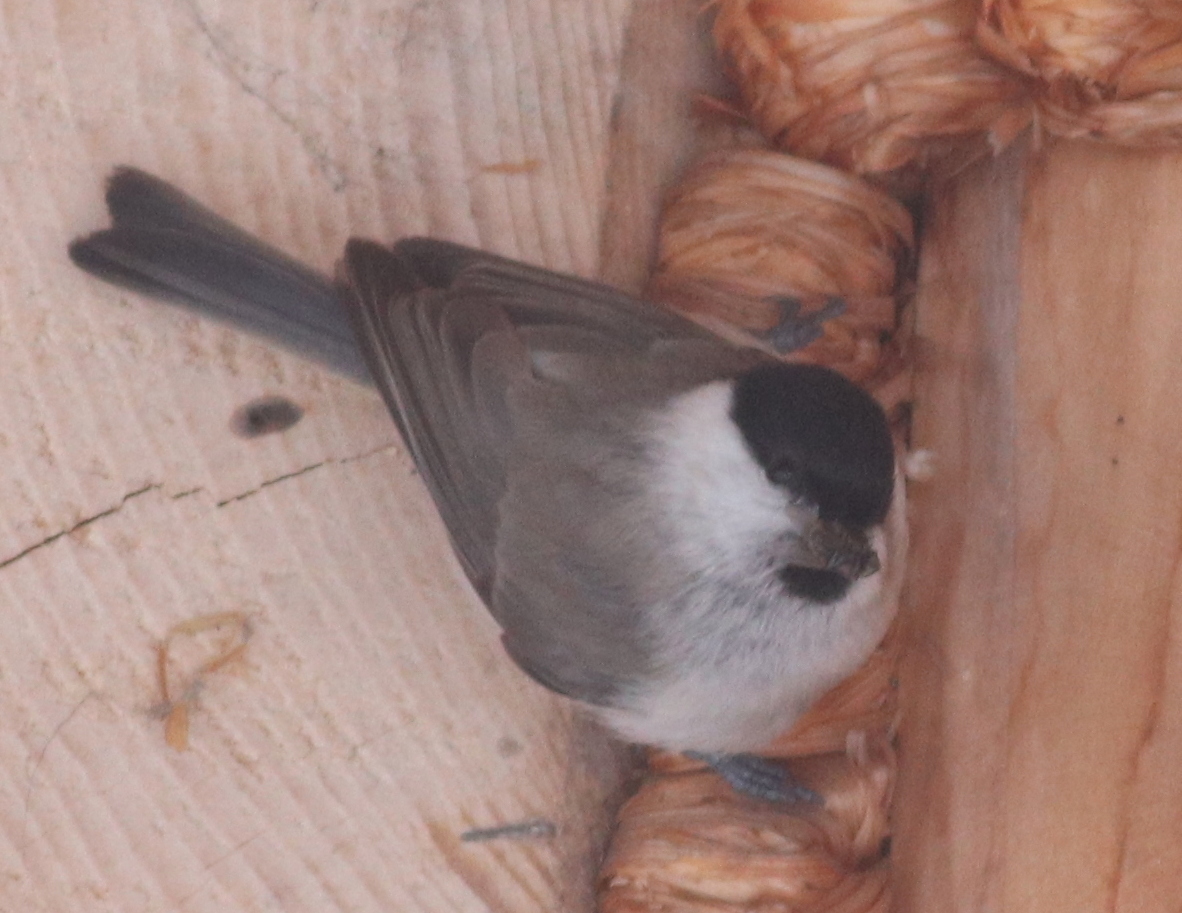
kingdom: Animalia
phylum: Chordata
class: Aves
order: Passeriformes
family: Paridae
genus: Poecile
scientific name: Poecile palustris
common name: Marsh tit
